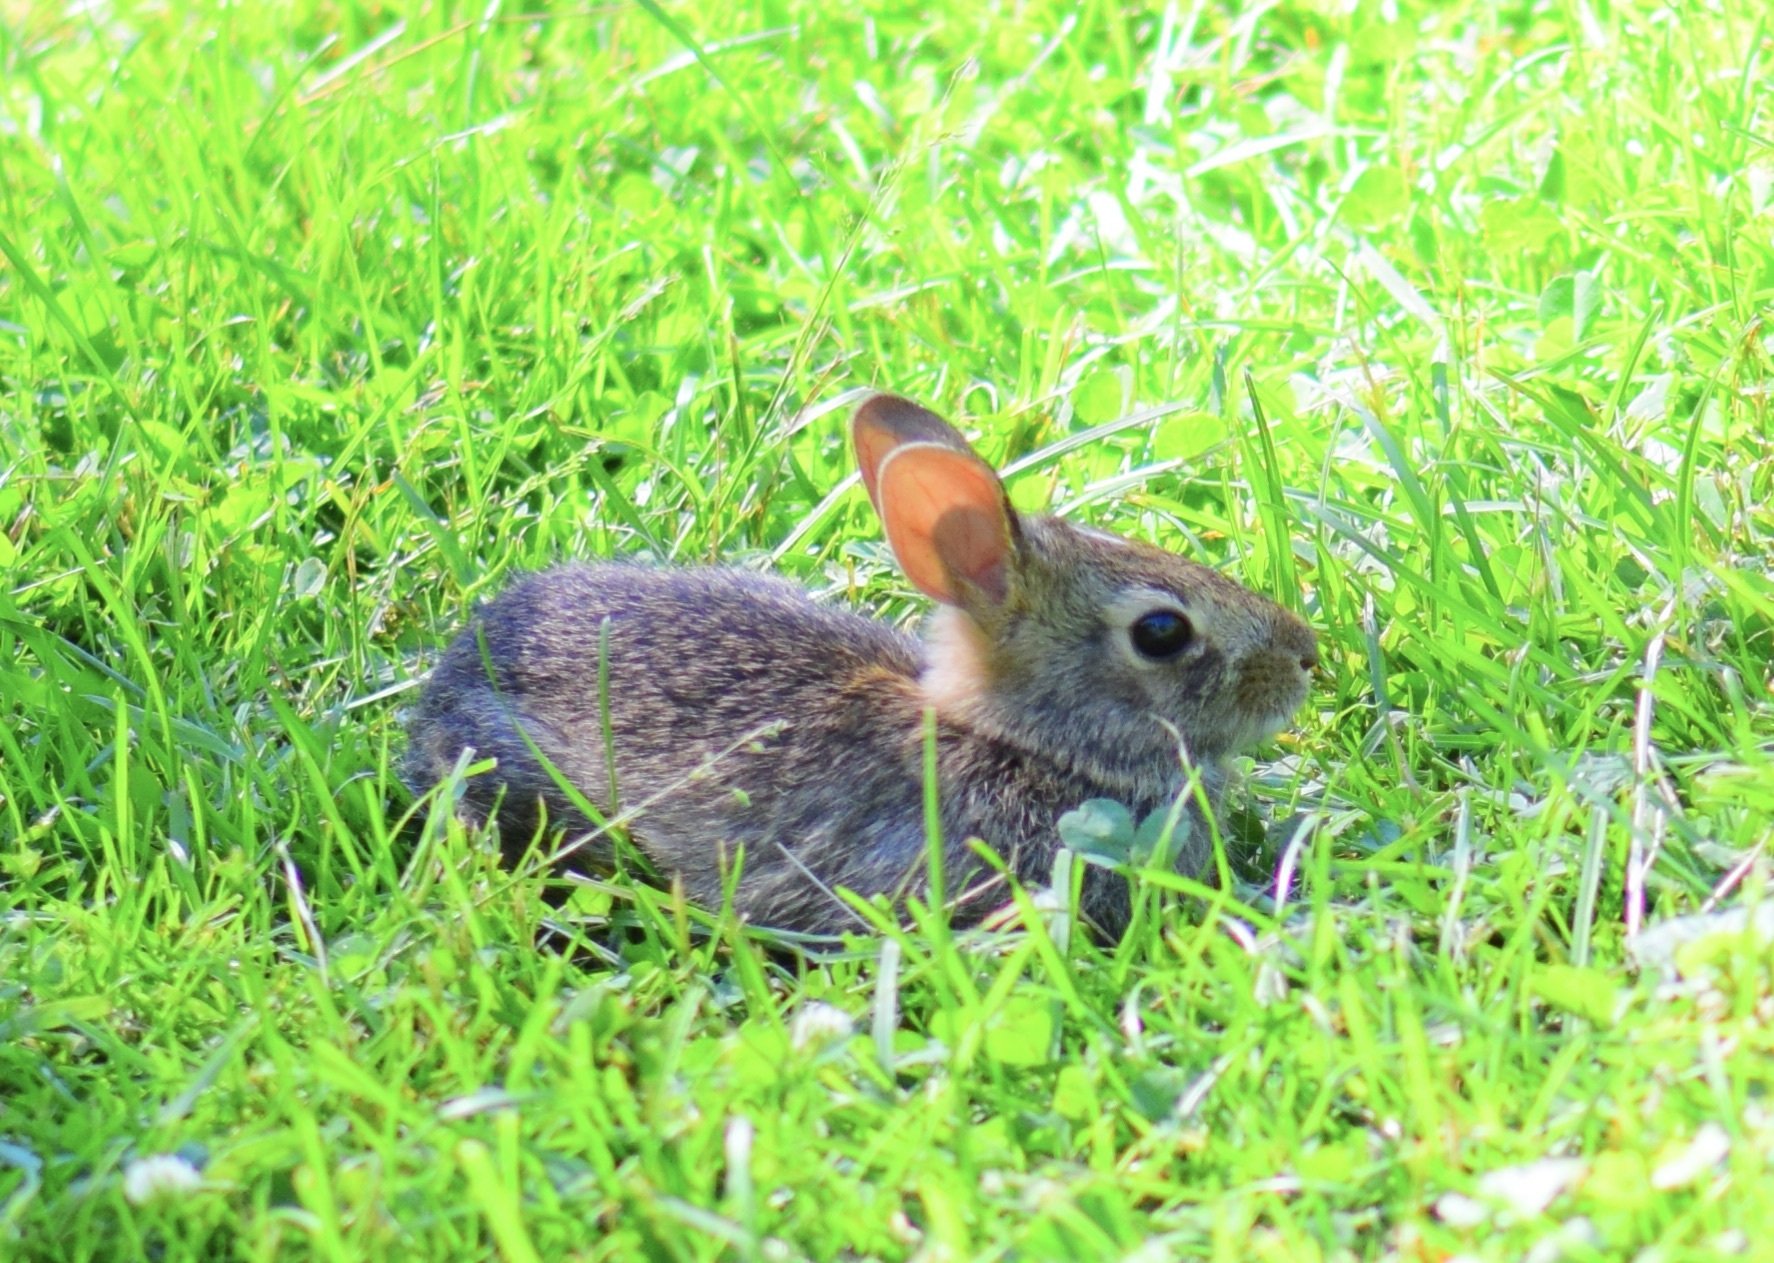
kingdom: Animalia
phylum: Chordata
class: Mammalia
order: Lagomorpha
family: Leporidae
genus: Sylvilagus
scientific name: Sylvilagus floridanus
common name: Eastern cottontail
